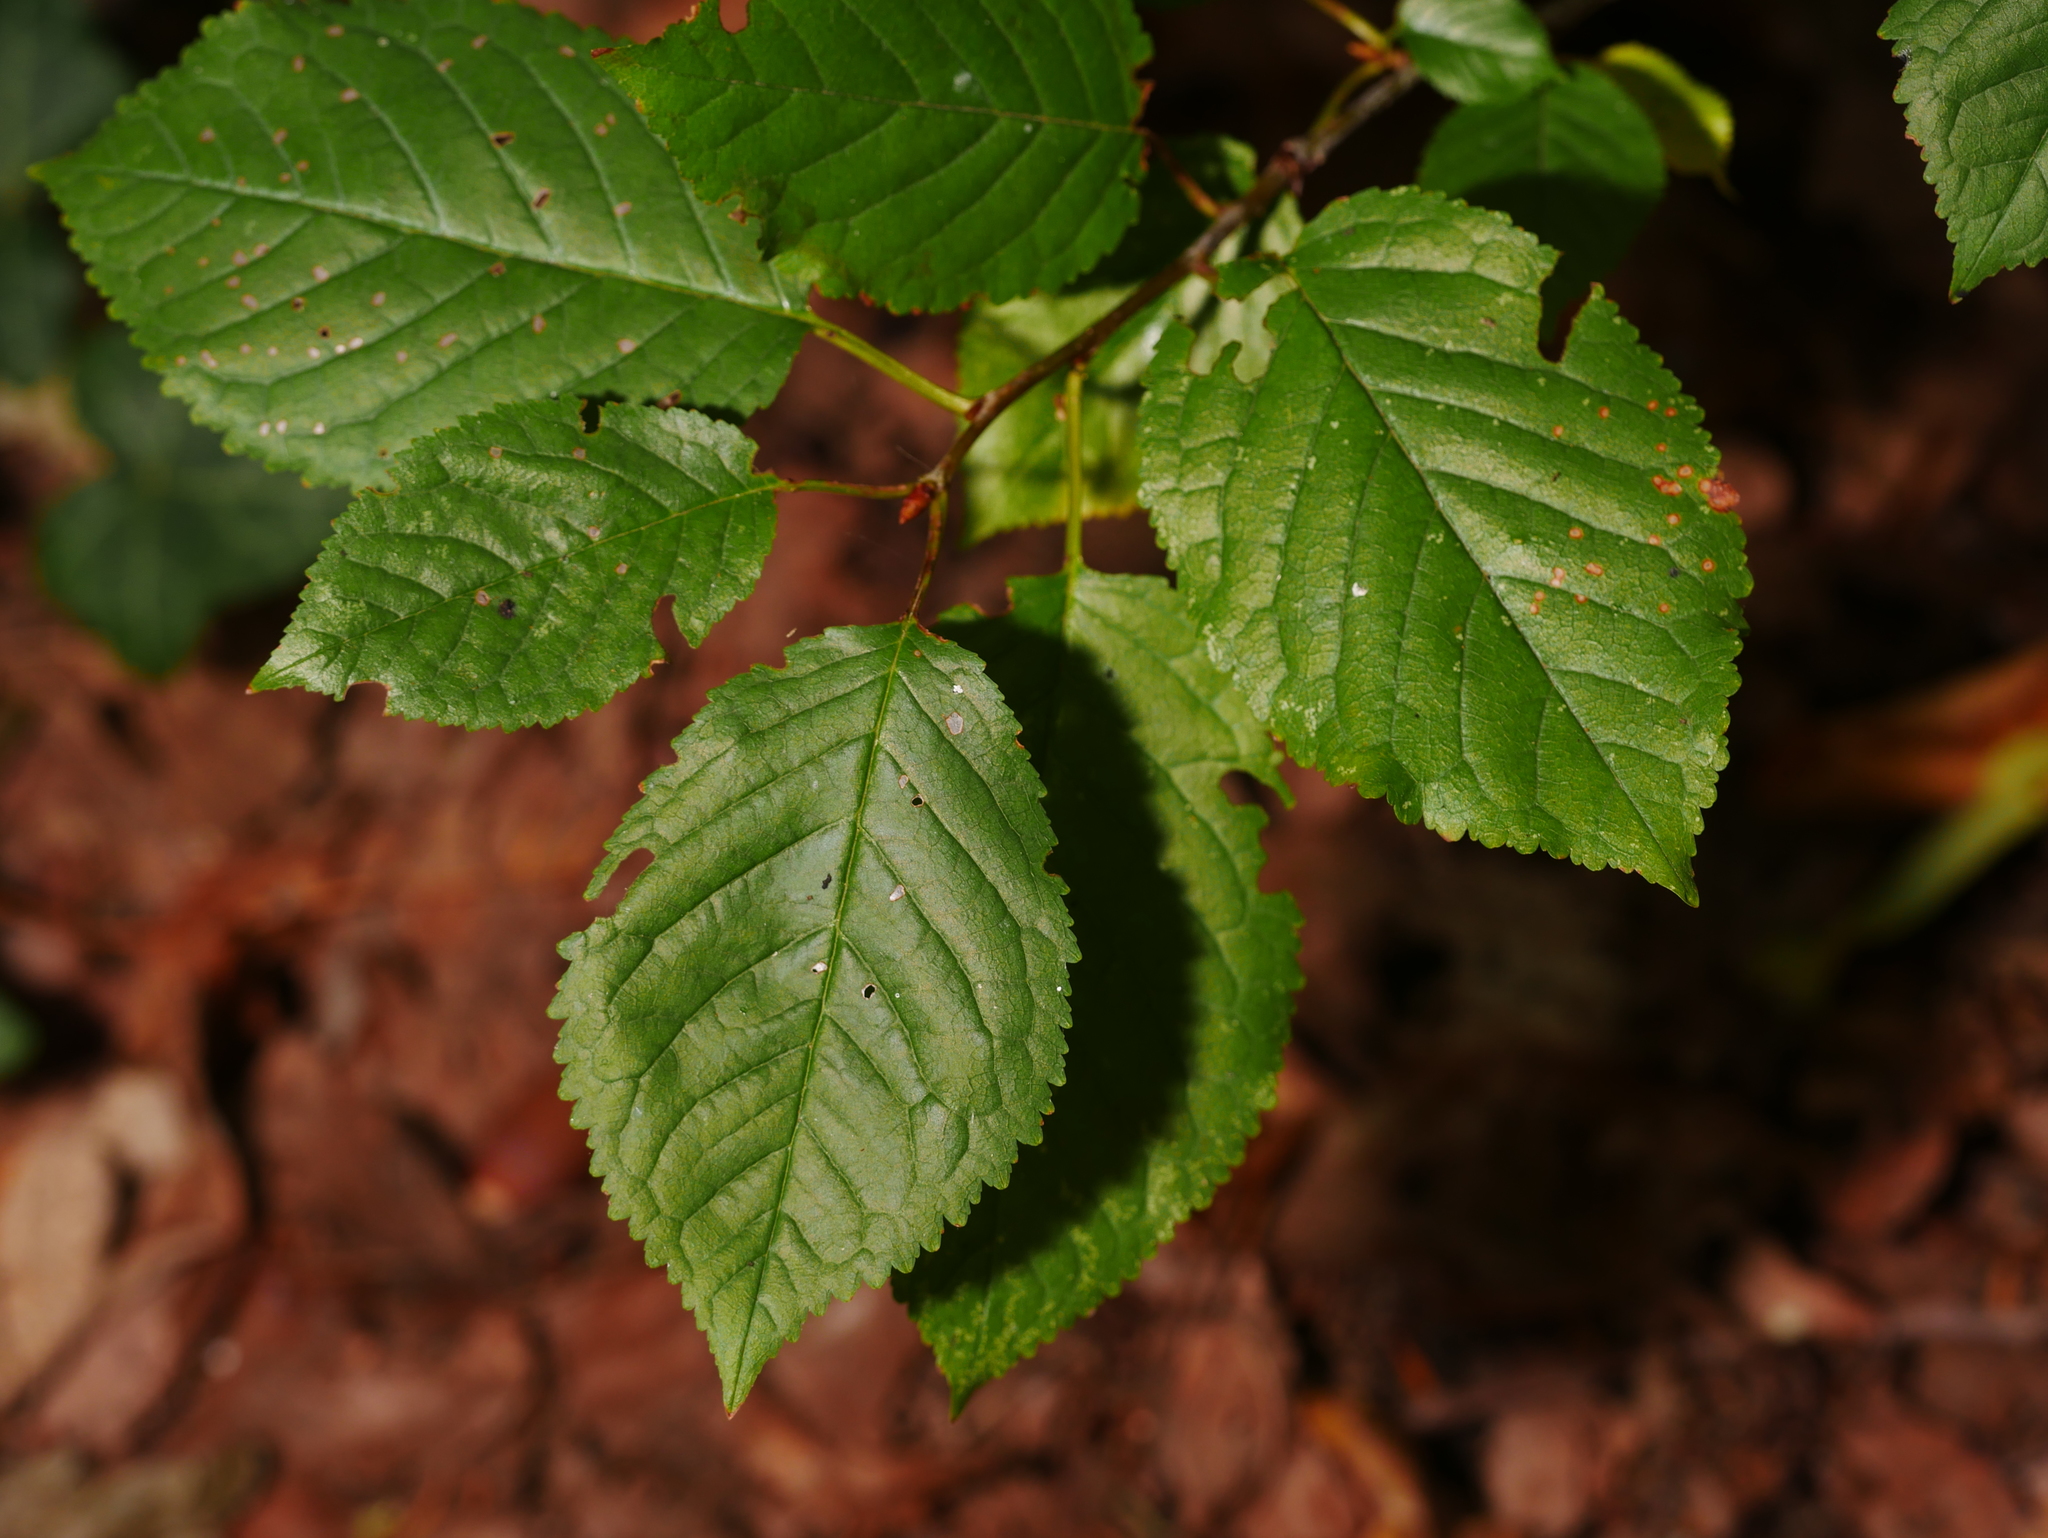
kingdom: Plantae
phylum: Tracheophyta
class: Magnoliopsida
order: Rosales
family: Rosaceae
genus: Prunus
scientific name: Prunus avium
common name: Sweet cherry
